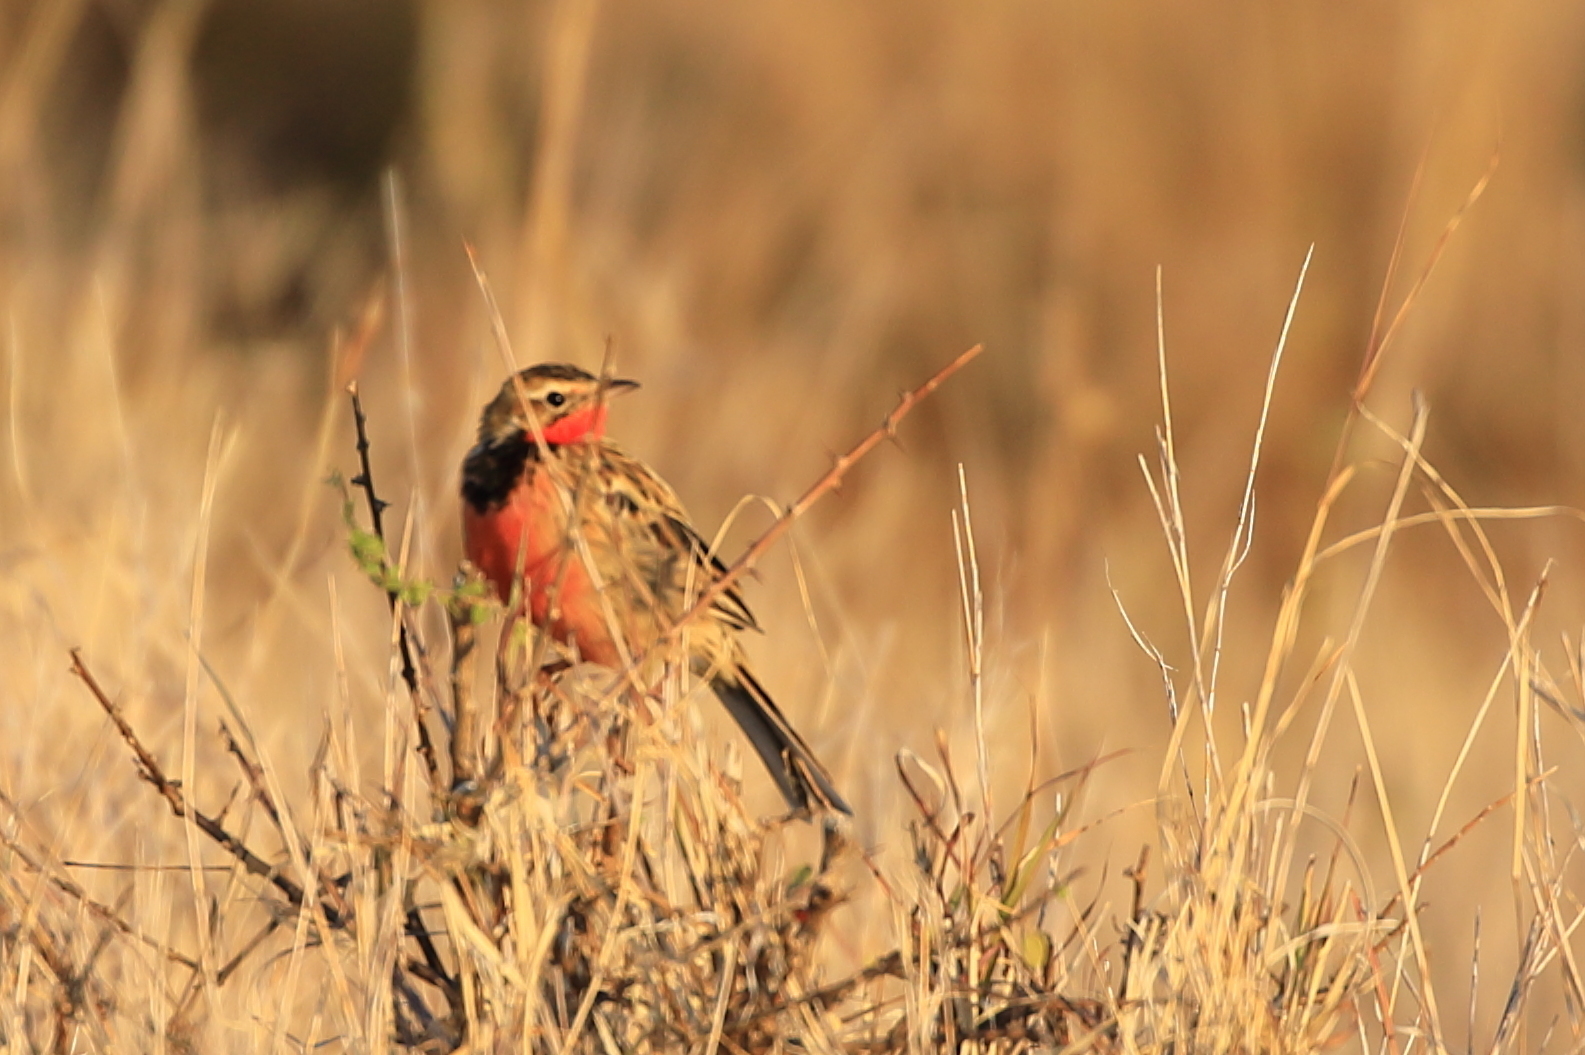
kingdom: Animalia
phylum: Chordata
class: Aves
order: Passeriformes
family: Motacillidae
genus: Macronyx
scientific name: Macronyx ameliae
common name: Rosy-throated longclaw
